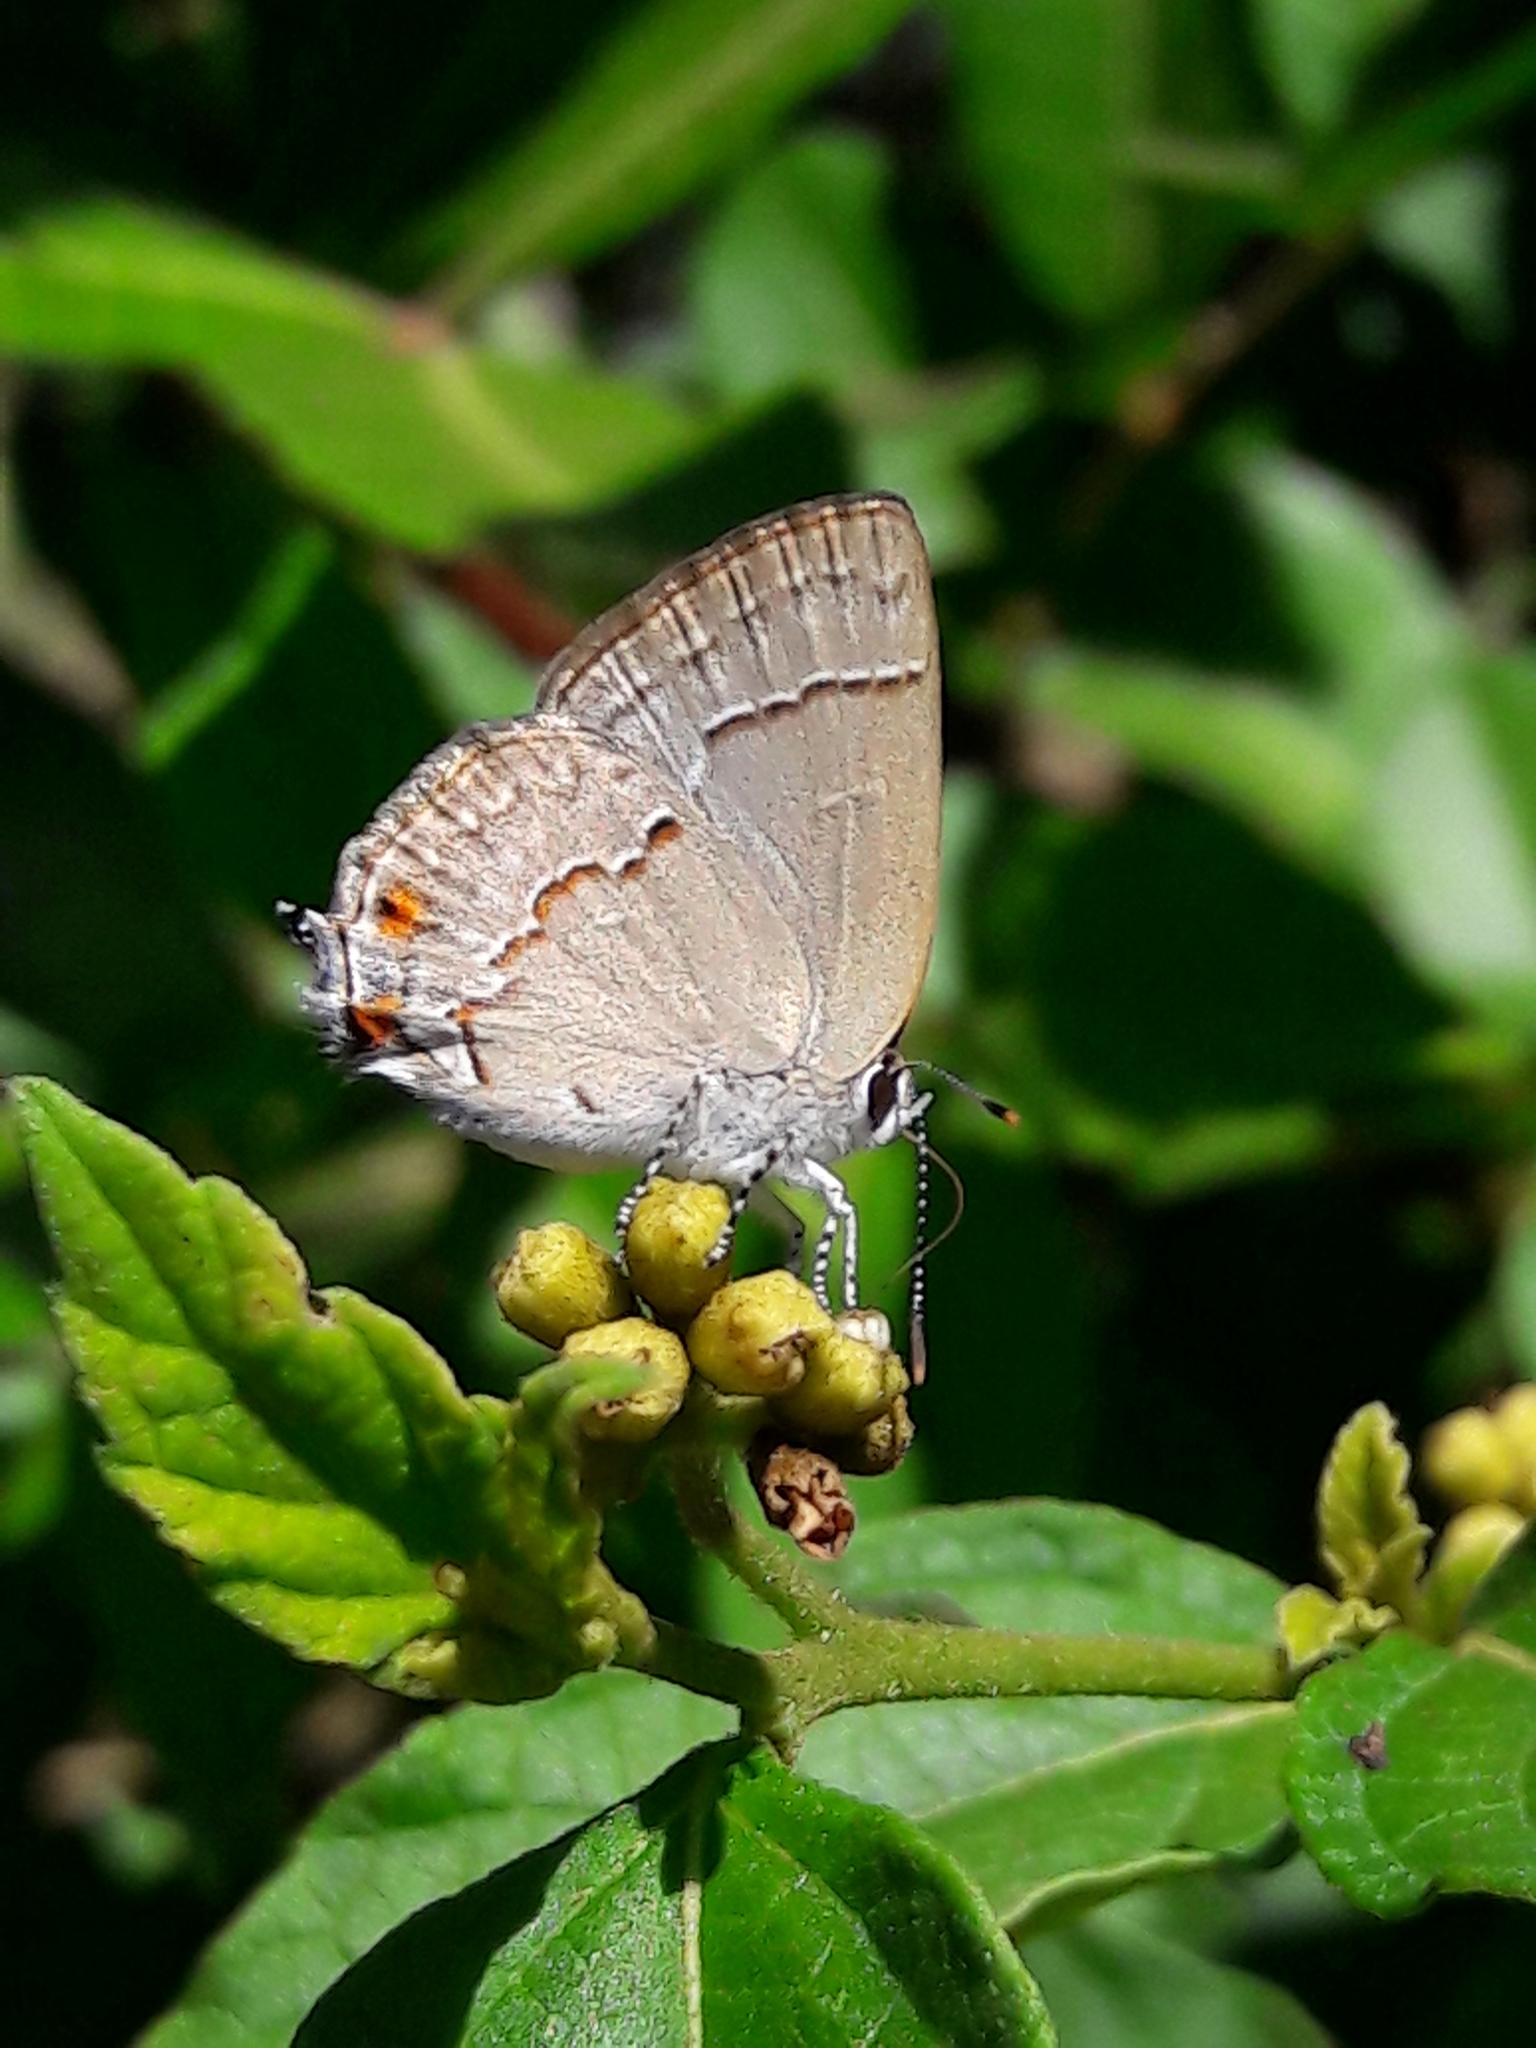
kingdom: Animalia
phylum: Arthropoda
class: Insecta
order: Lepidoptera
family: Lycaenidae
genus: Thecla
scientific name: Thecla gnosia
